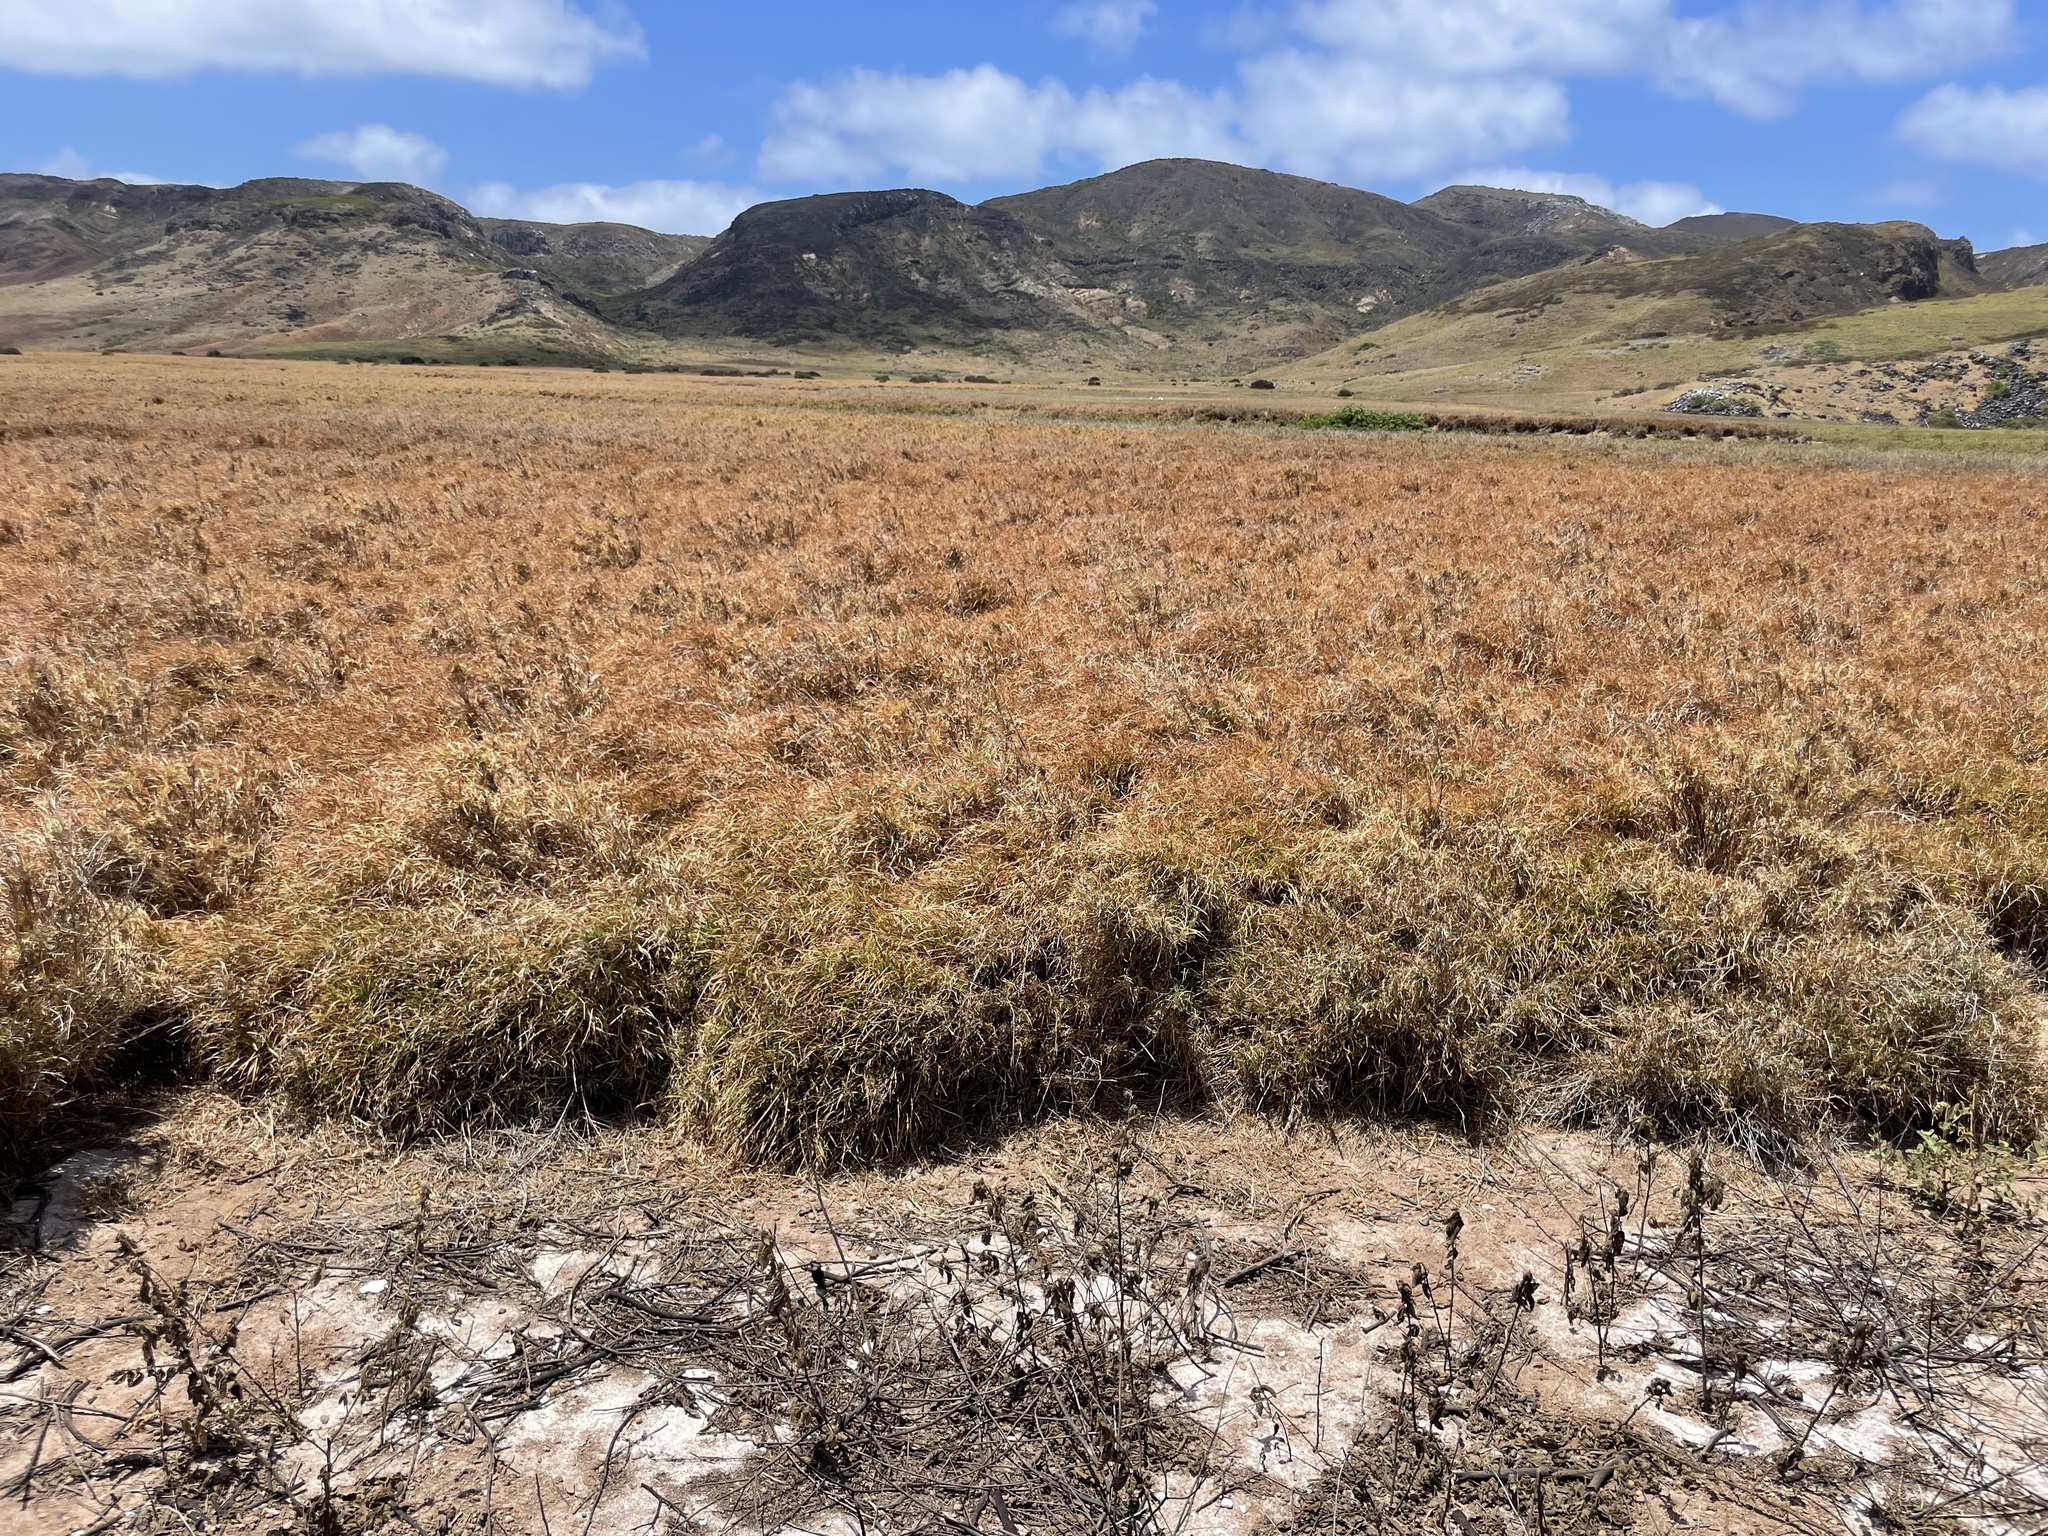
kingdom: Plantae
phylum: Tracheophyta
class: Liliopsida
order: Poales
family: Poaceae
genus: Cenchrus
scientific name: Cenchrus ciliaris
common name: Buffelgrass
